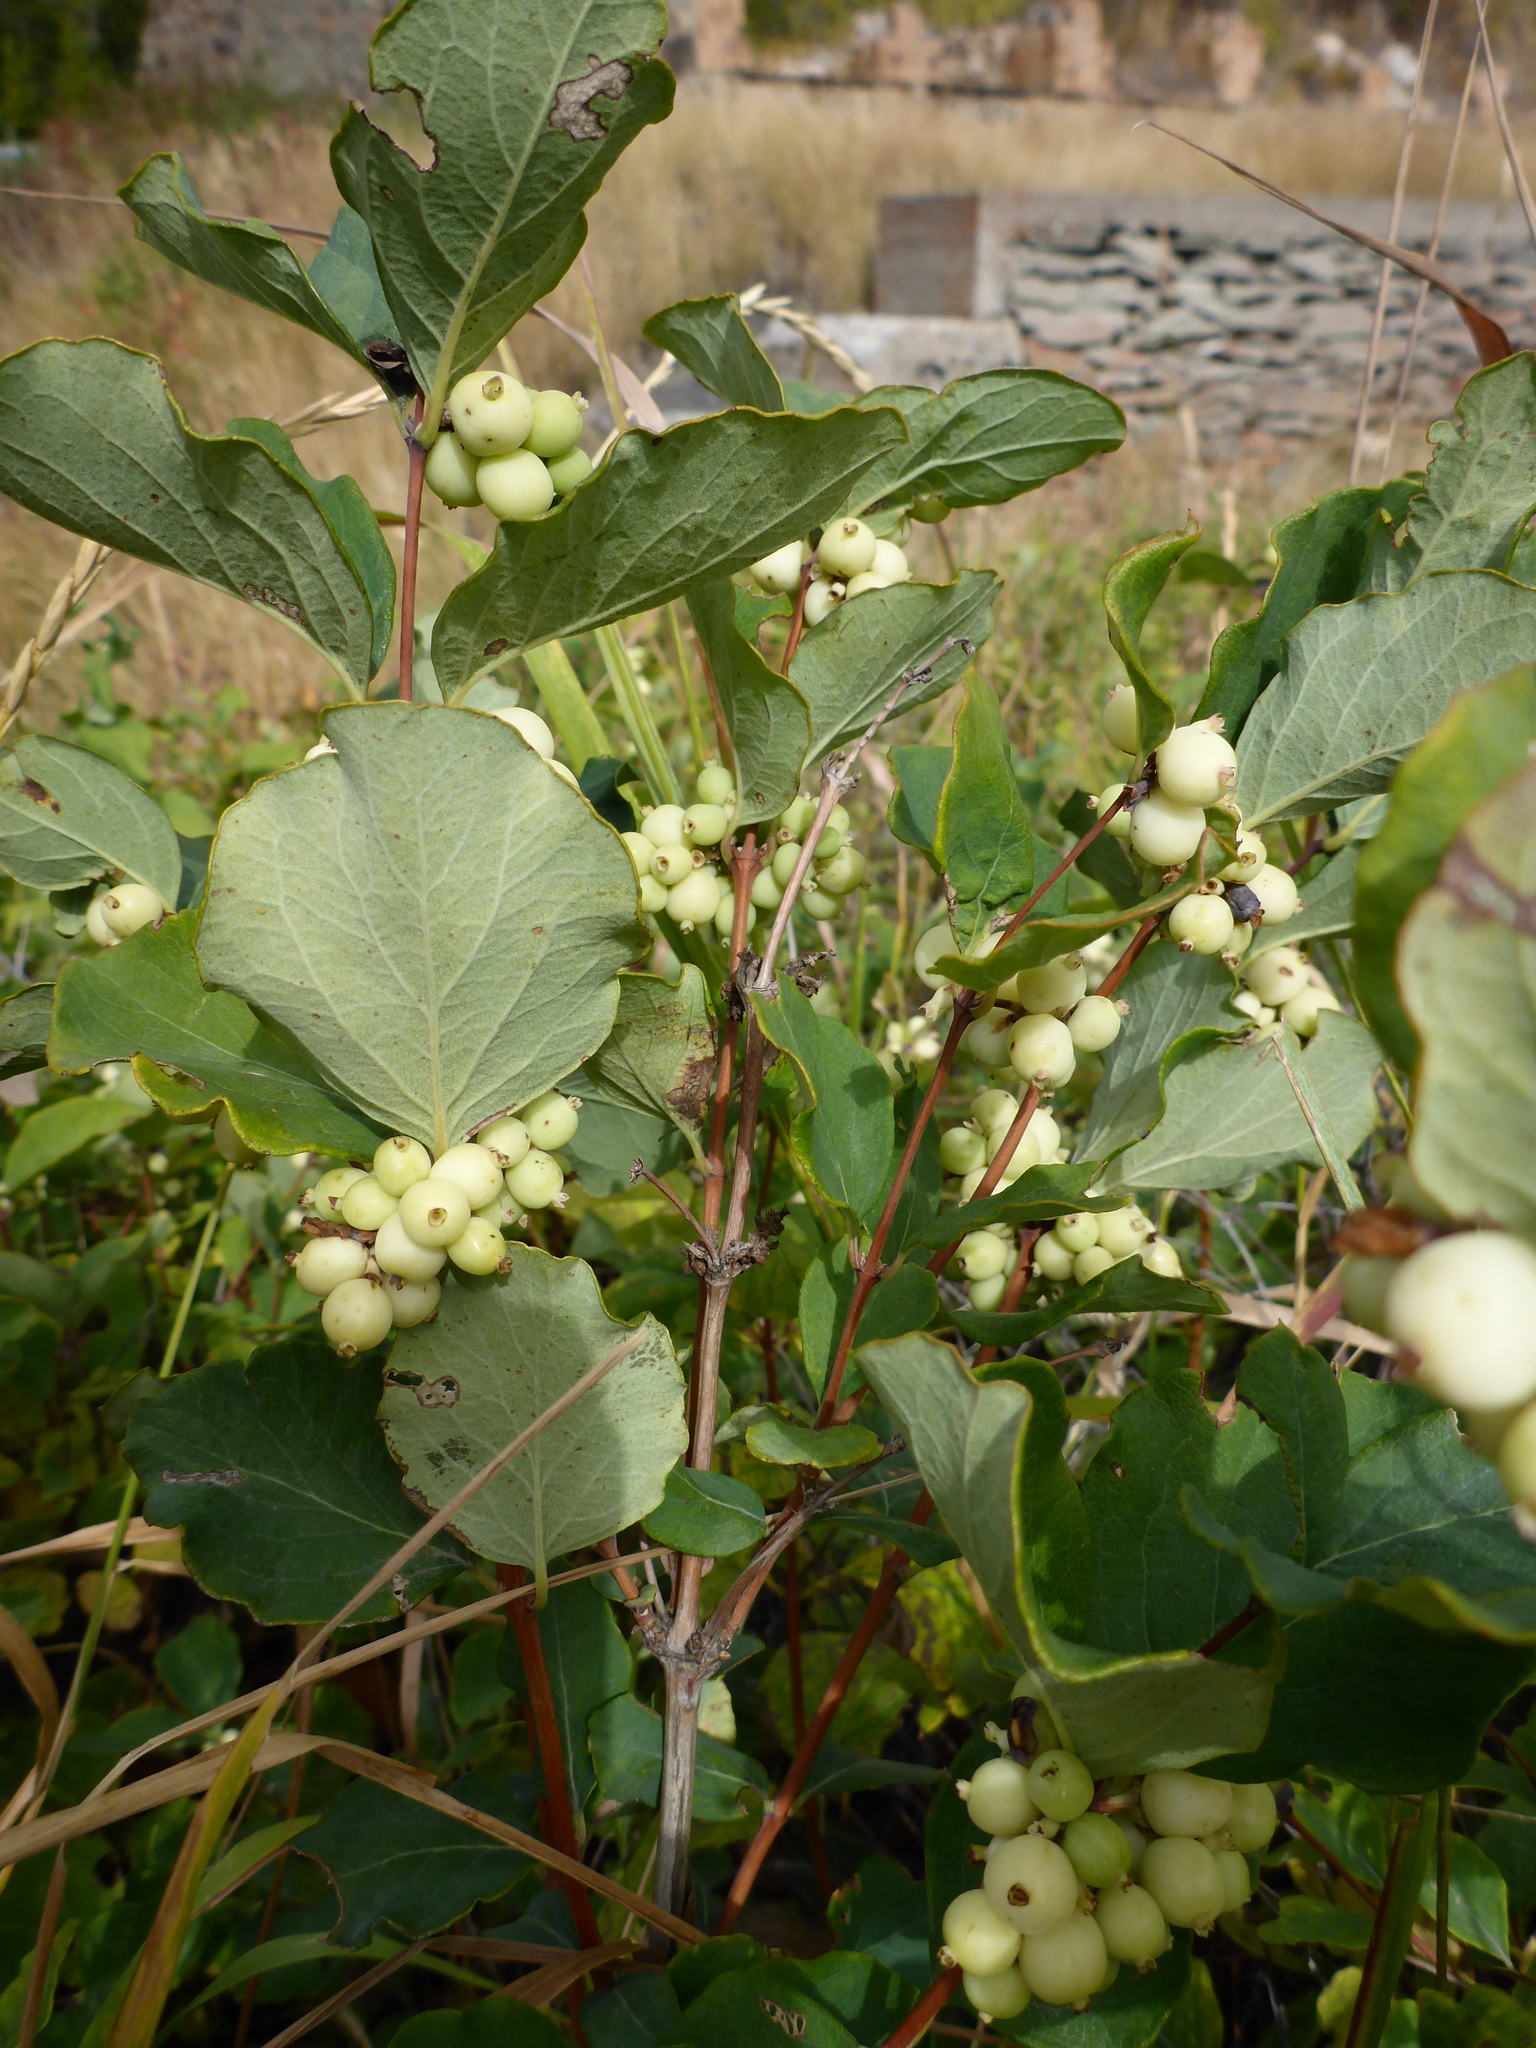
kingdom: Plantae
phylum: Tracheophyta
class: Magnoliopsida
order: Dipsacales
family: Caprifoliaceae
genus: Symphoricarpos
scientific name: Symphoricarpos occidentalis
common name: Wolfberry
